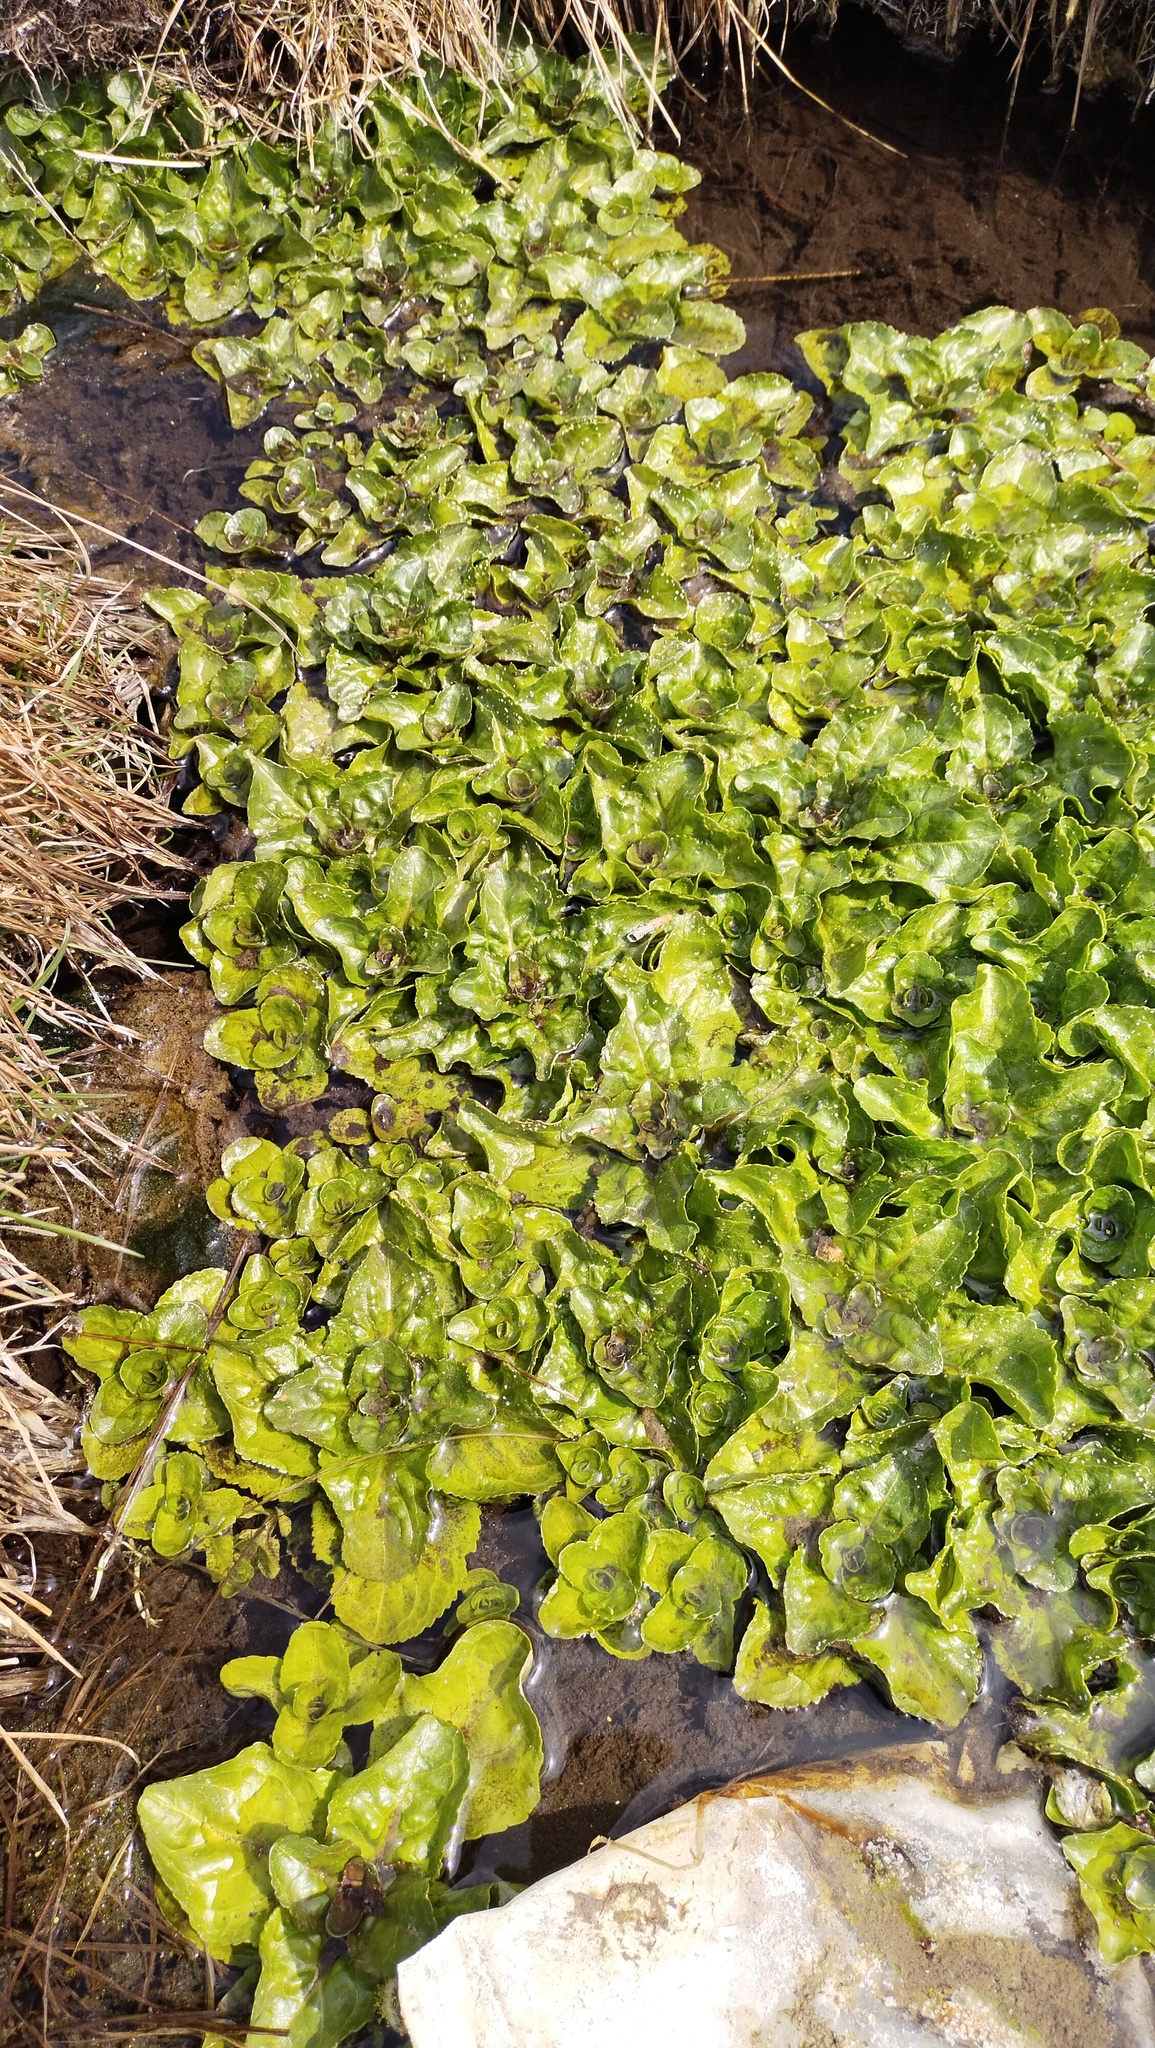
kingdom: Plantae
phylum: Tracheophyta
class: Magnoliopsida
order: Lamiales
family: Plantaginaceae
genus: Veronica
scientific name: Veronica beccabunga
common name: Brooklime
